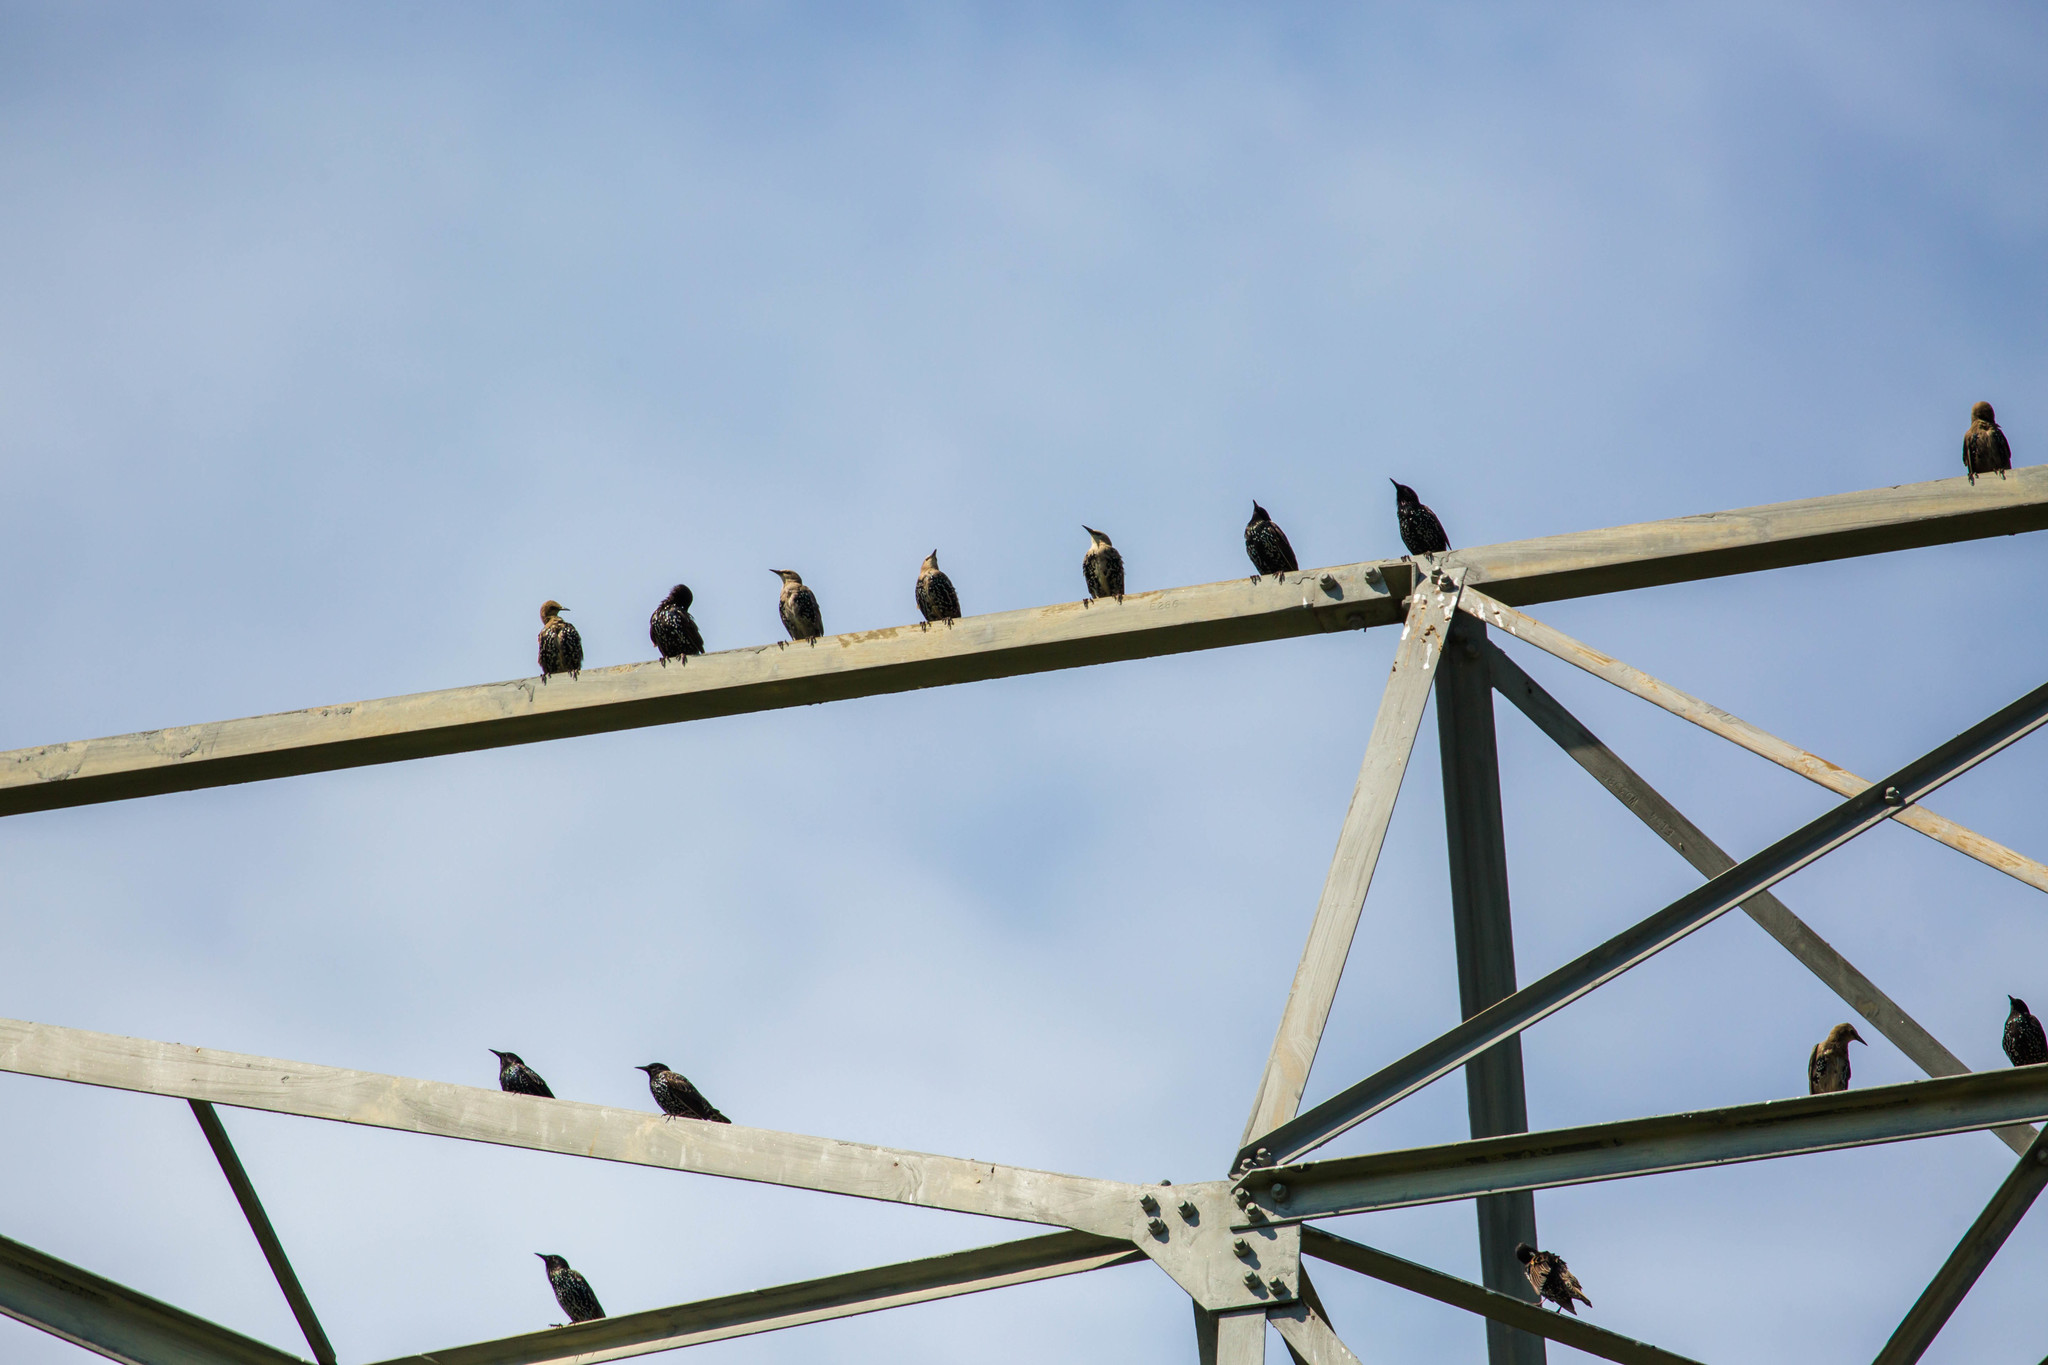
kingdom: Animalia
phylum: Chordata
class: Aves
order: Passeriformes
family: Sturnidae
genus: Sturnus
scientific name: Sturnus vulgaris
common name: Common starling
